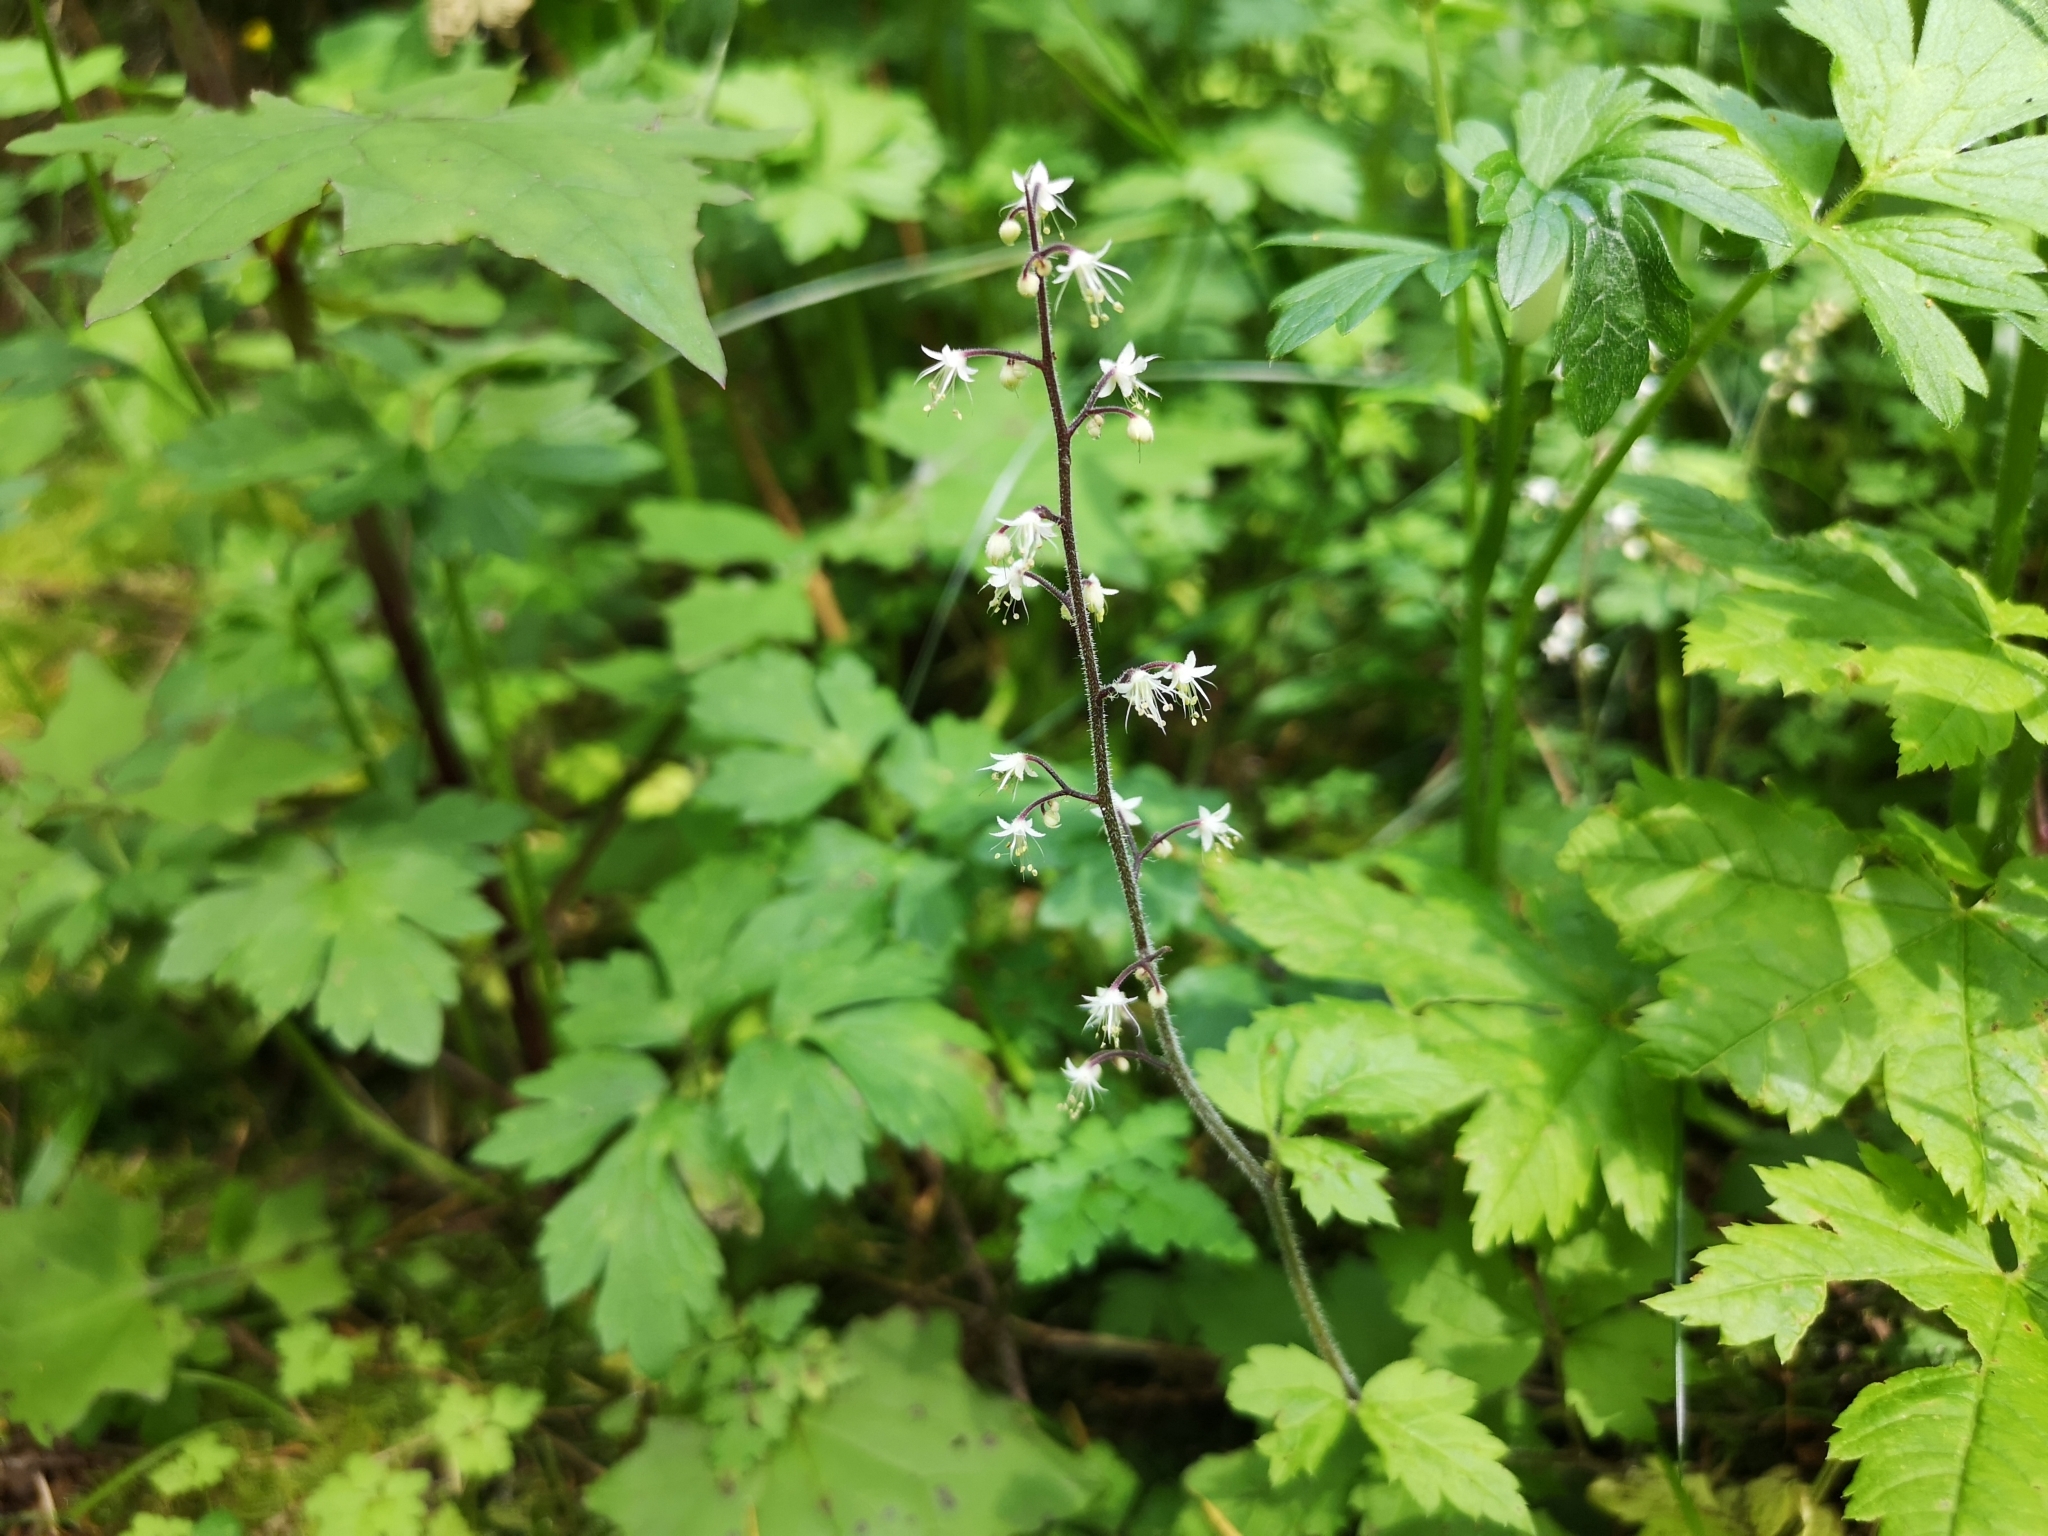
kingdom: Plantae
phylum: Tracheophyta
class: Magnoliopsida
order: Saxifragales
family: Saxifragaceae
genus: Tiarella
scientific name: Tiarella trifoliata
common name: Sugar-scoop
